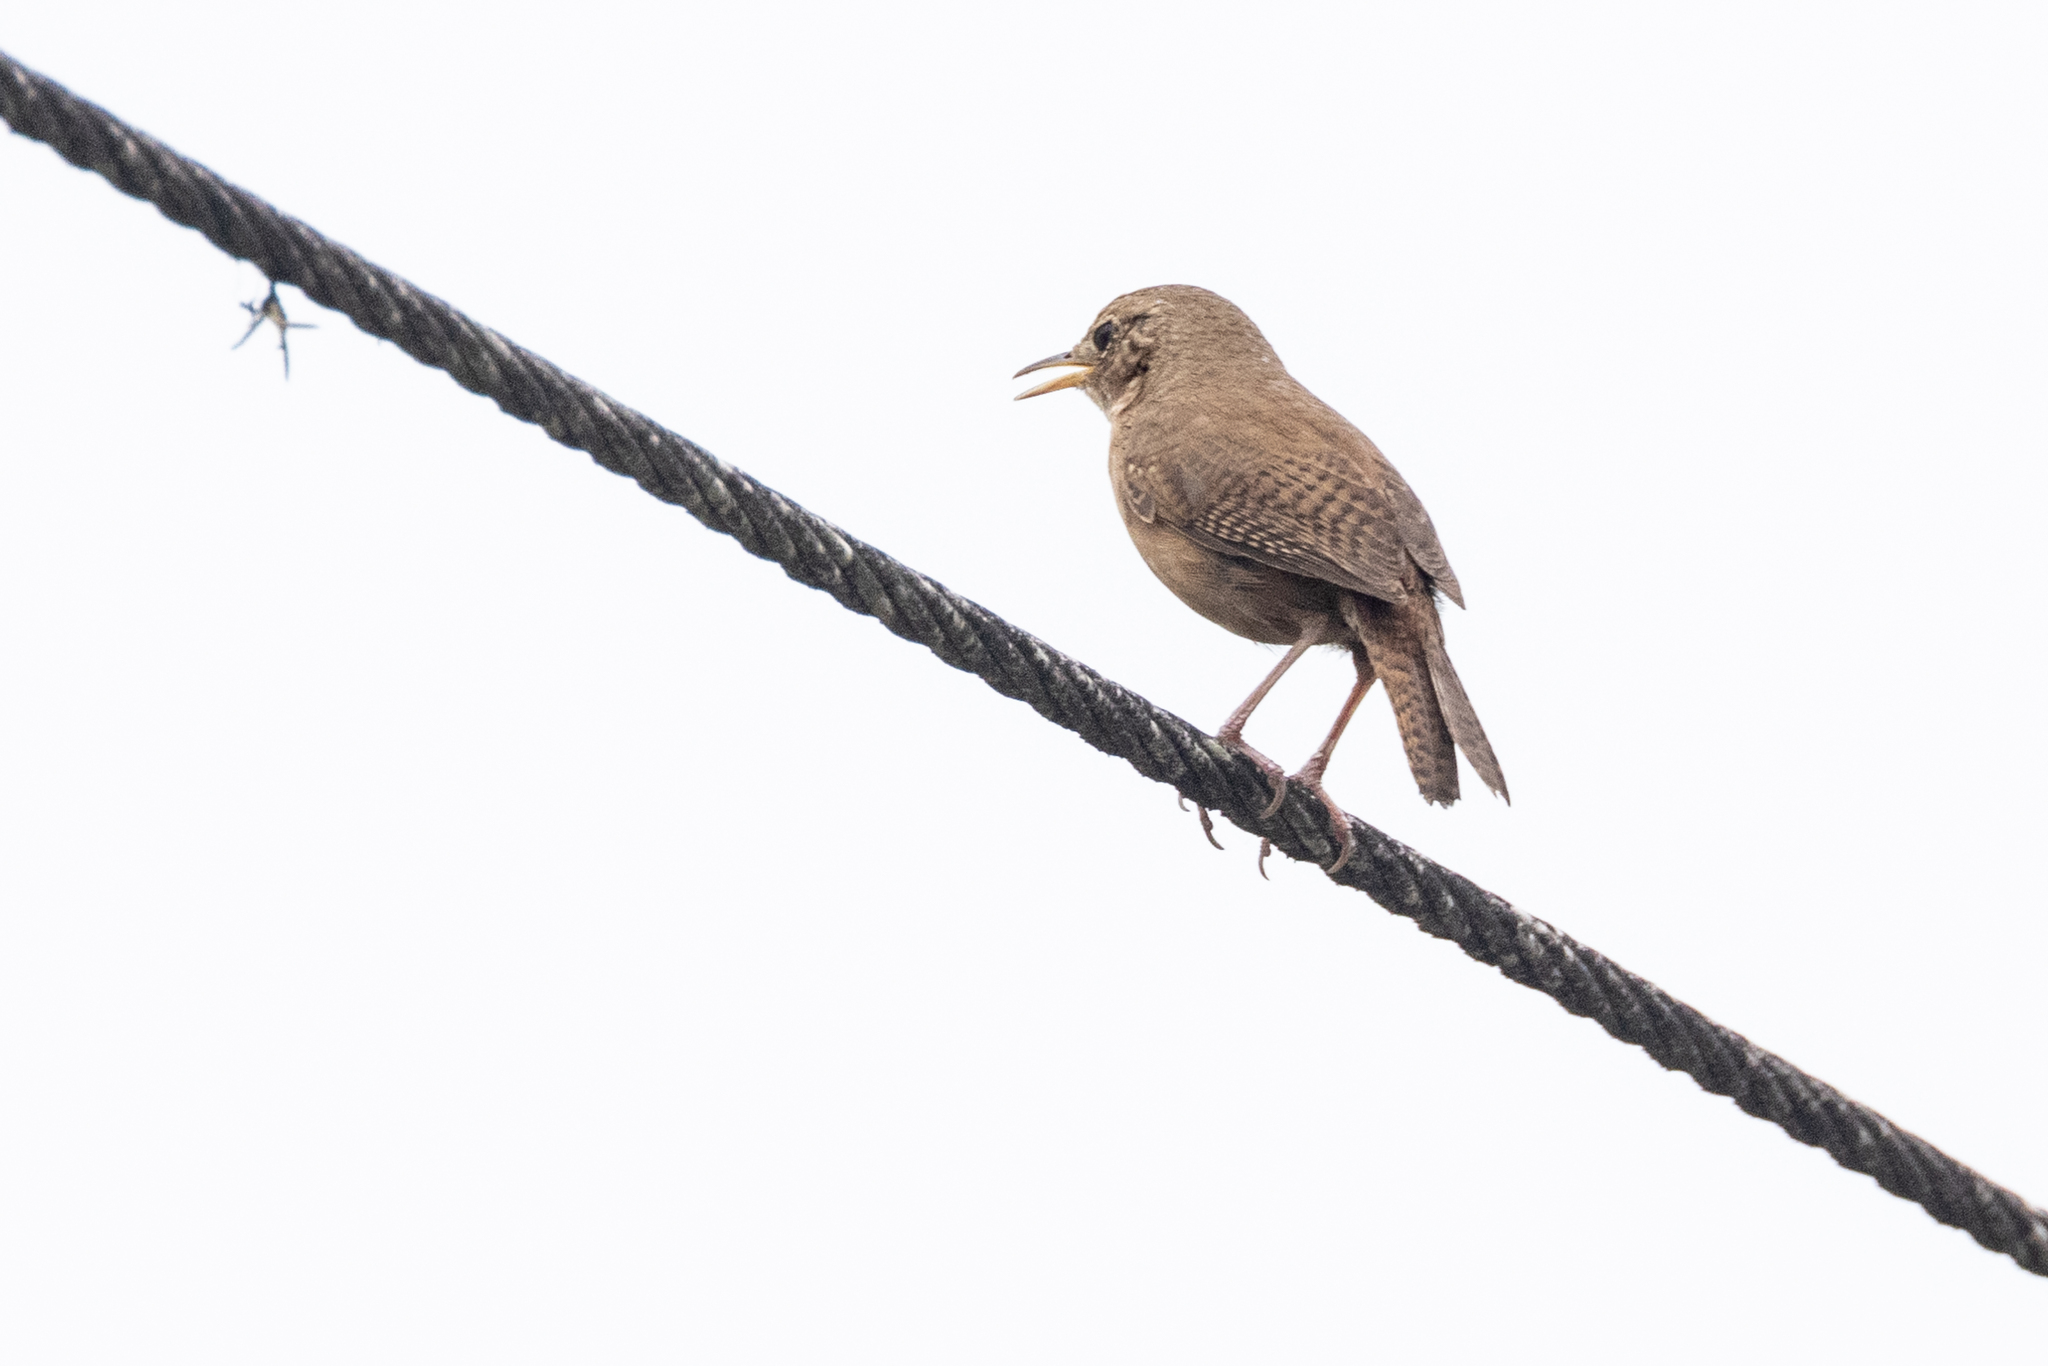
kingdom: Animalia
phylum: Chordata
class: Aves
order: Passeriformes
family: Troglodytidae
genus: Troglodytes
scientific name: Troglodytes aedon
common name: House wren
